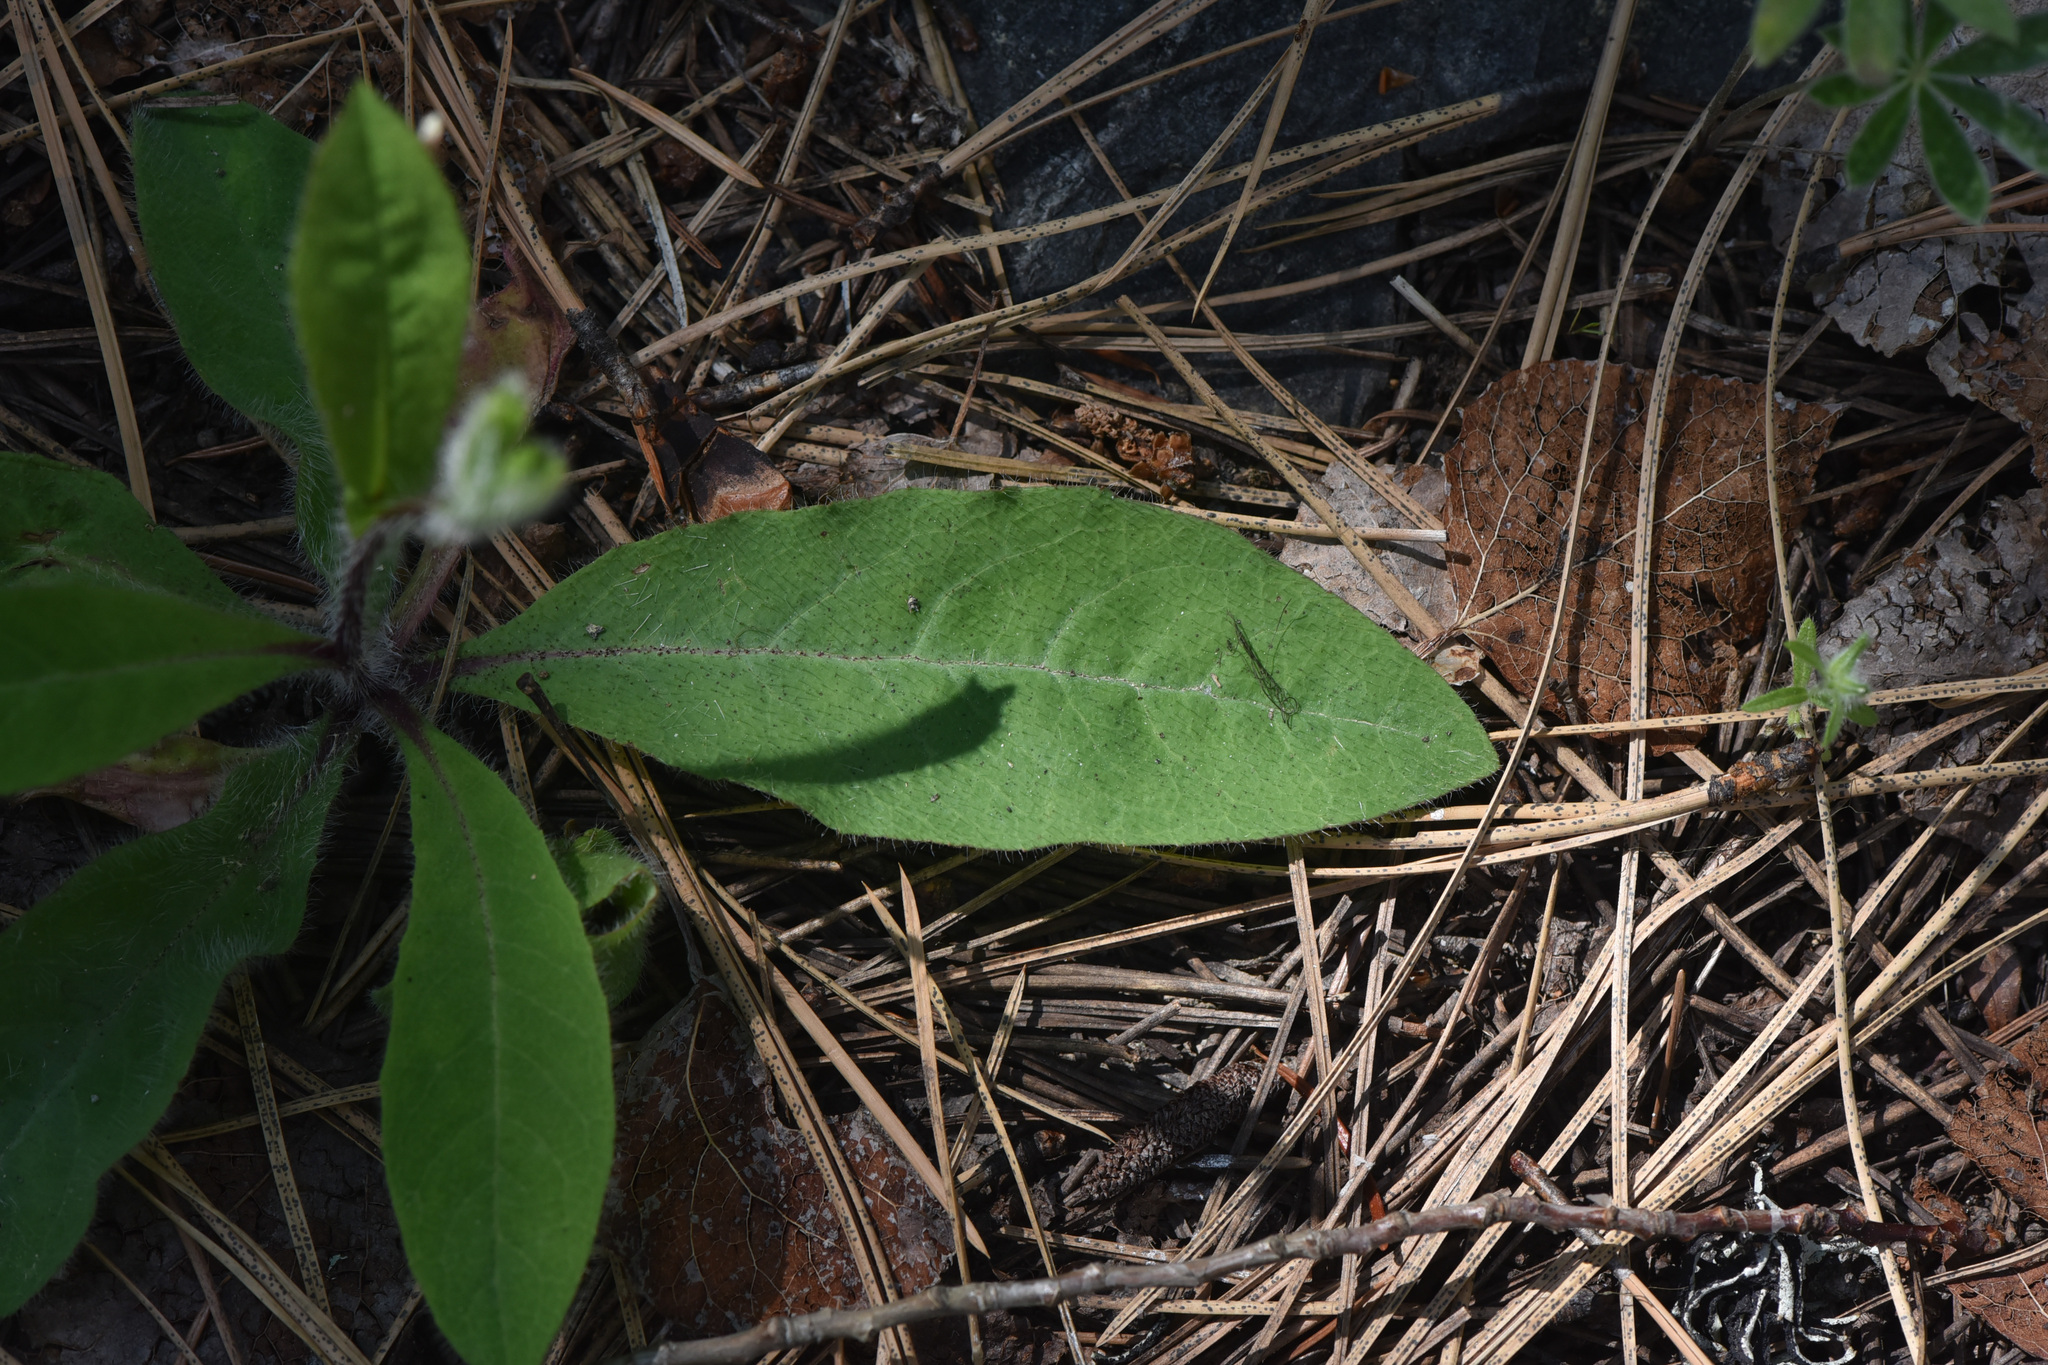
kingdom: Plantae
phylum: Tracheophyta
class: Magnoliopsida
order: Asterales
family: Asteraceae
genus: Hieracium
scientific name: Hieracium albiflorum
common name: White hawkweed
